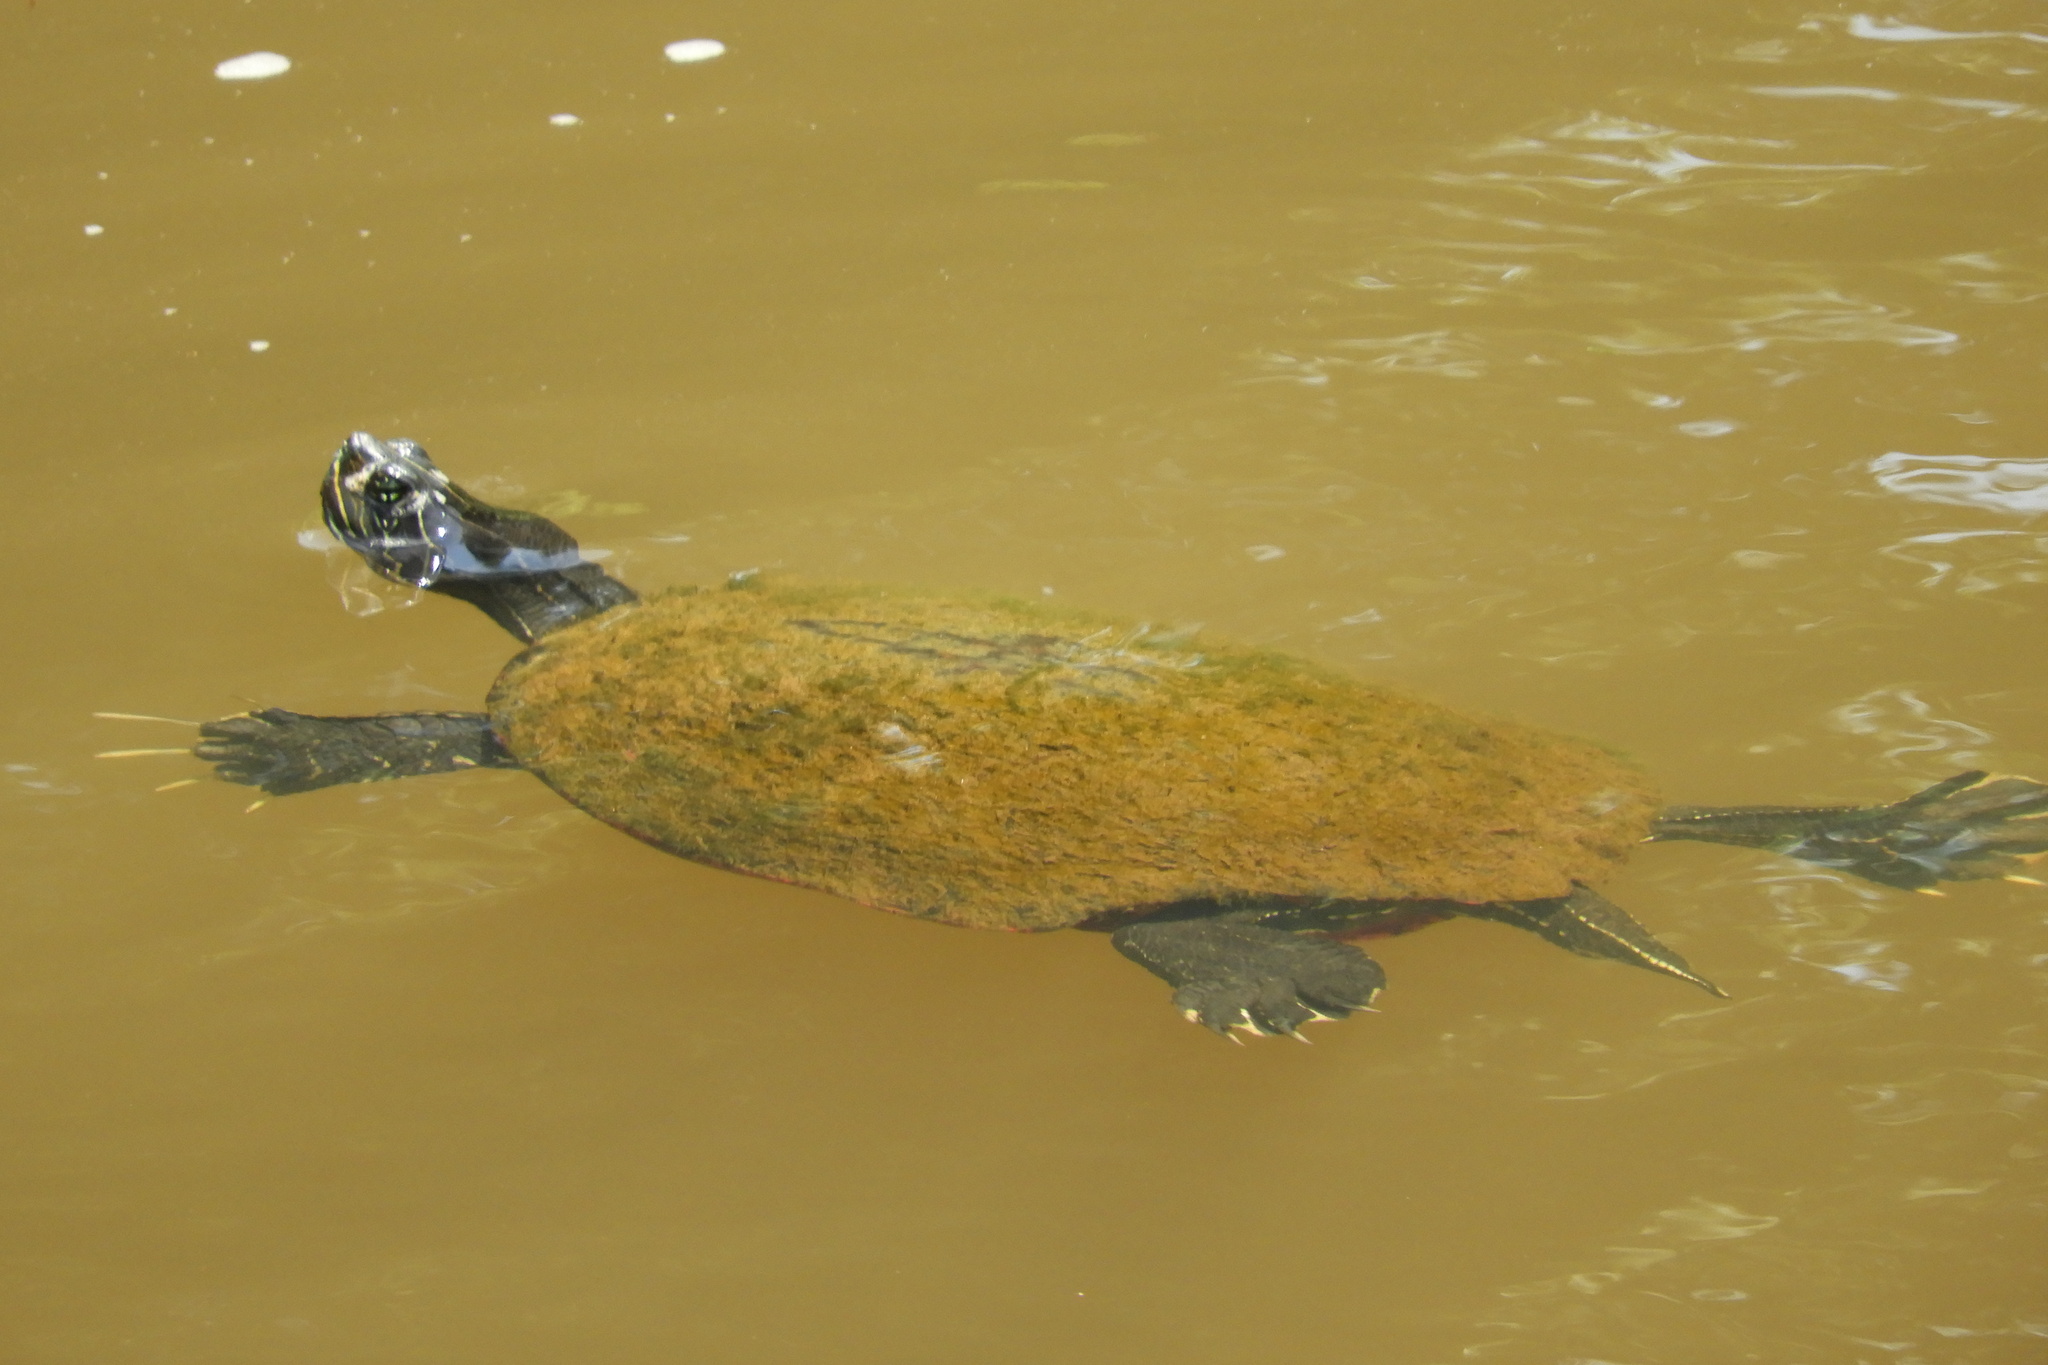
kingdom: Animalia
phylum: Chordata
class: Testudines
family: Emydidae
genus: Pseudemys
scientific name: Pseudemys rubriventris
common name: American red-bellied turtle
